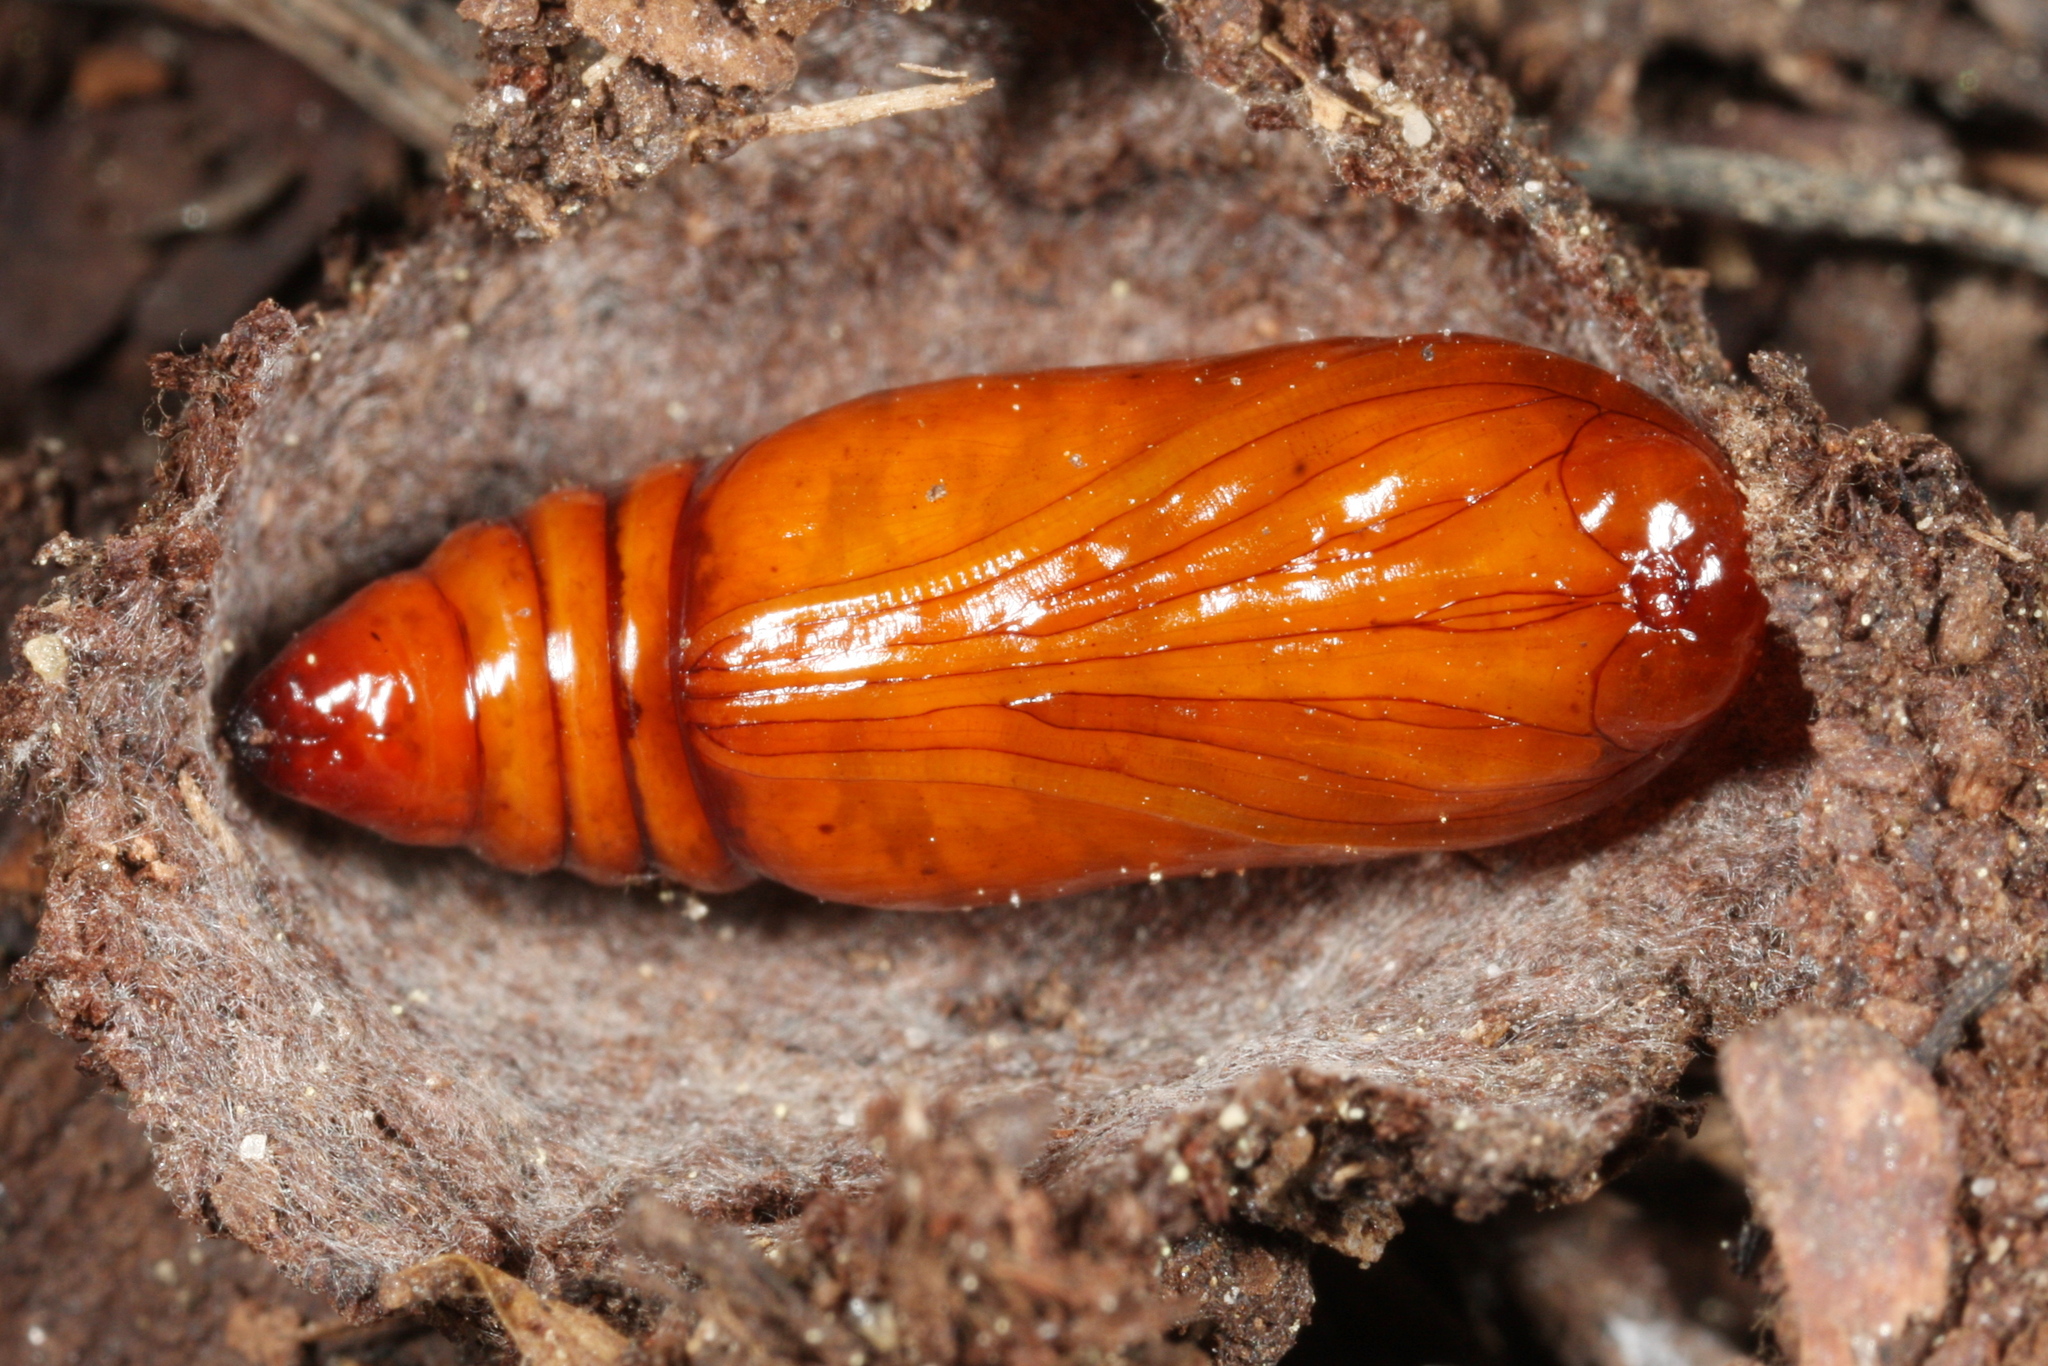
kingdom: Animalia
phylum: Arthropoda
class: Insecta
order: Lepidoptera
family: Noctuidae
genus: Sunira
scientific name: Sunira circellaris
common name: Brick
